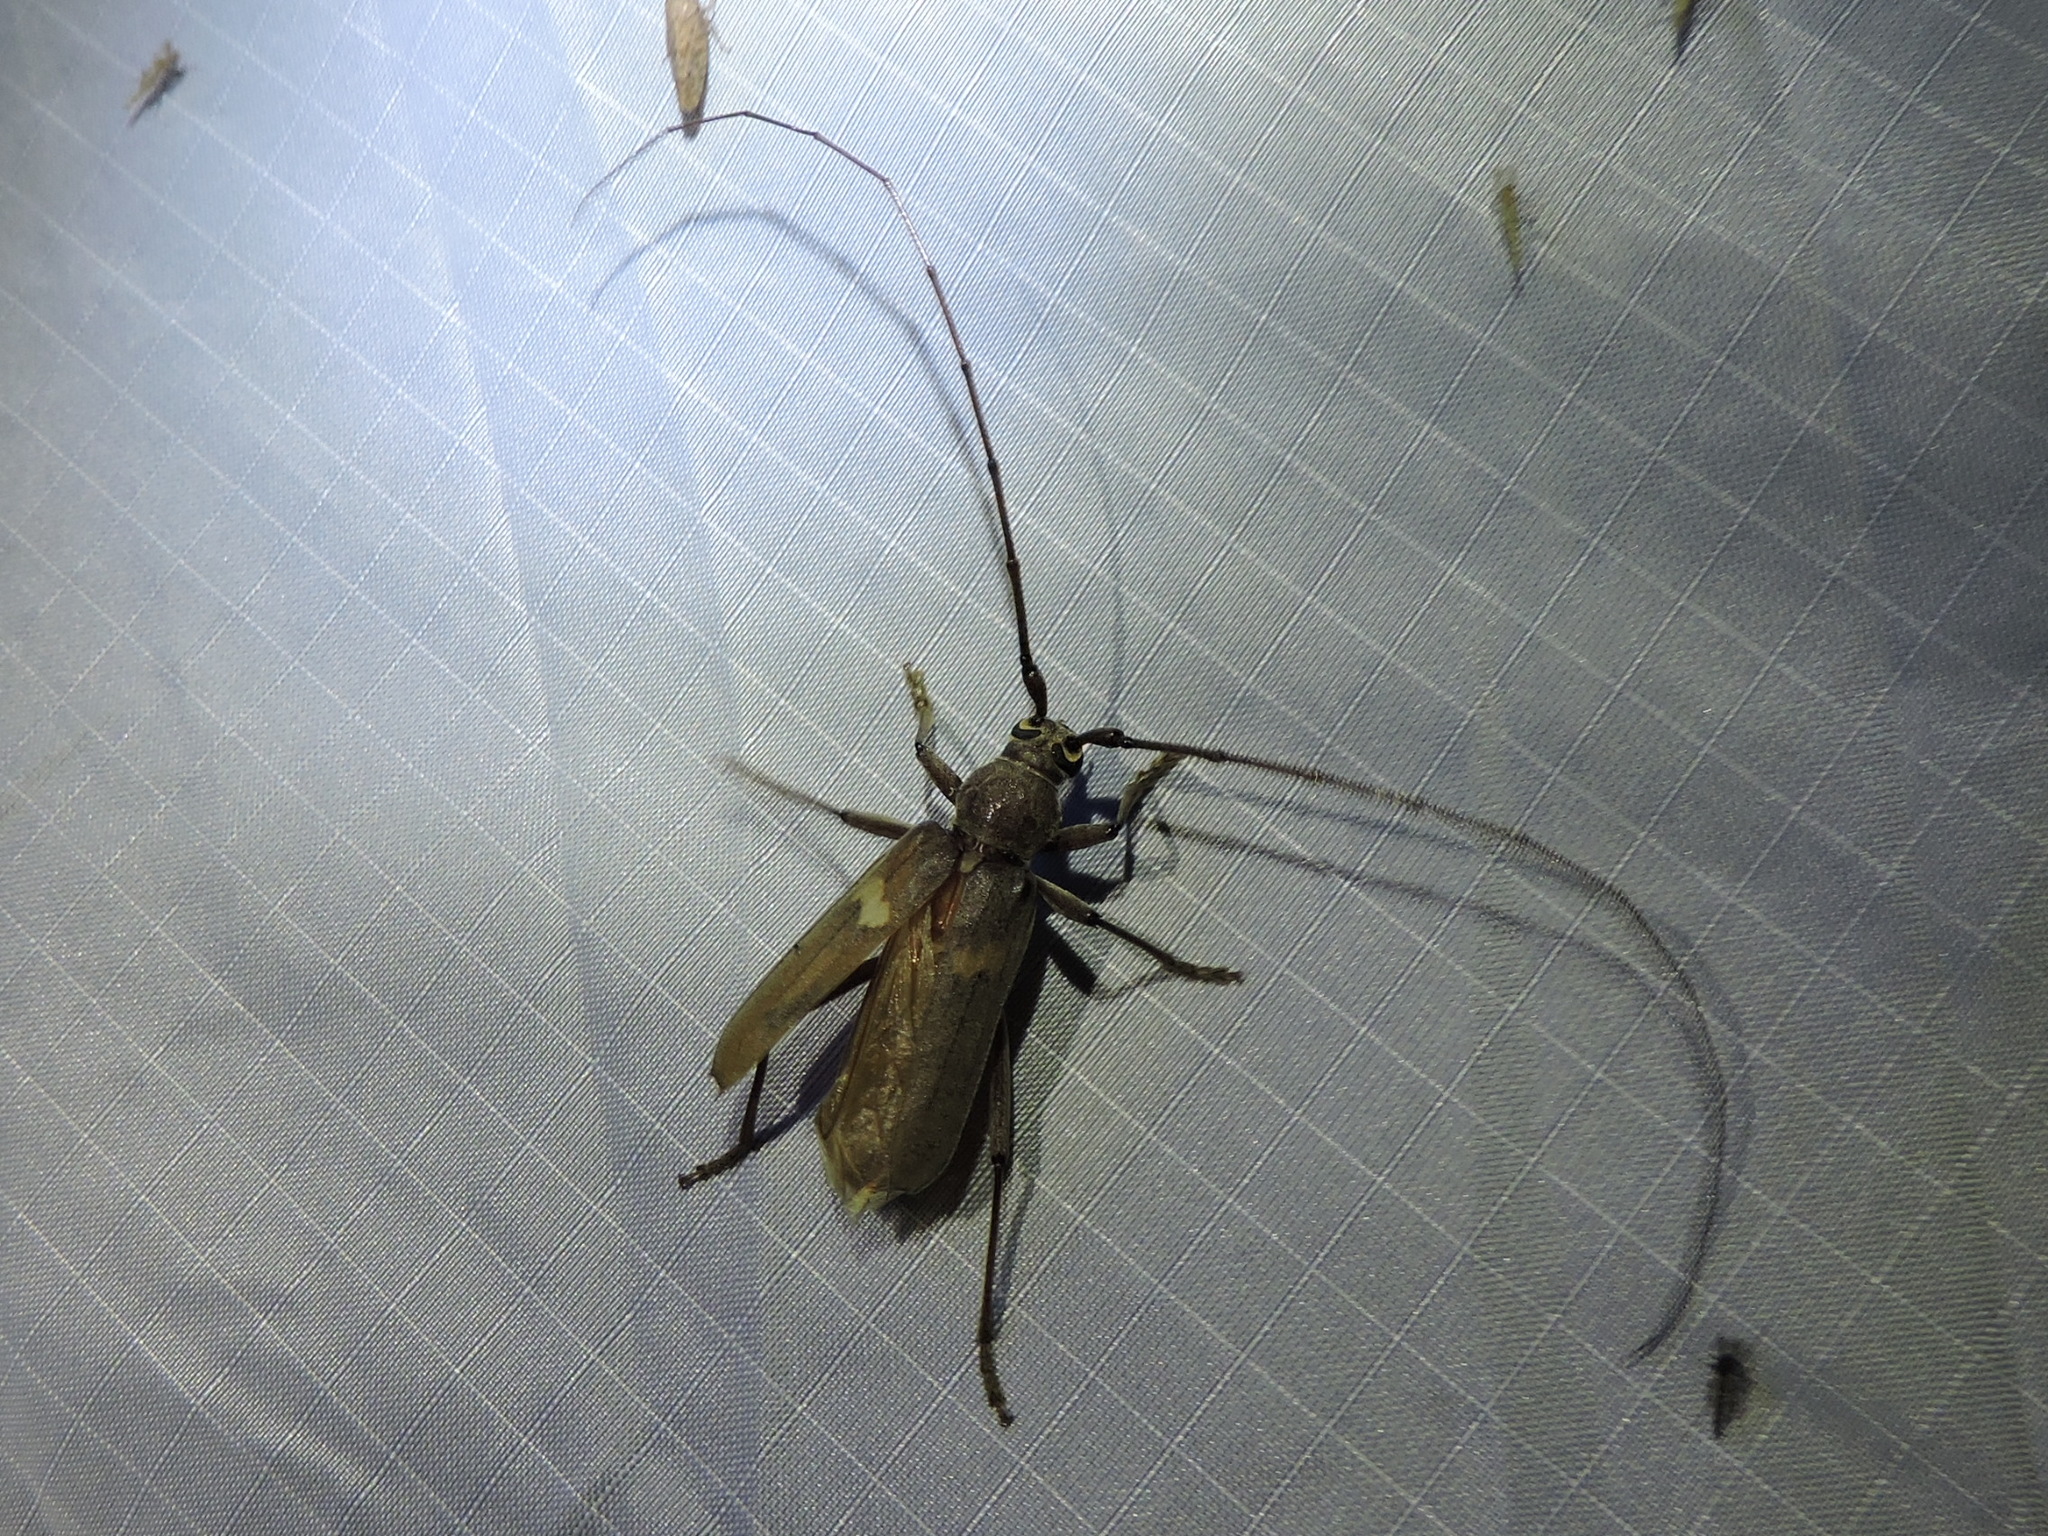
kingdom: Animalia
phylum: Arthropoda
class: Insecta
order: Coleoptera
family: Cerambycidae
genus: Knulliana
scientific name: Knulliana cincta
